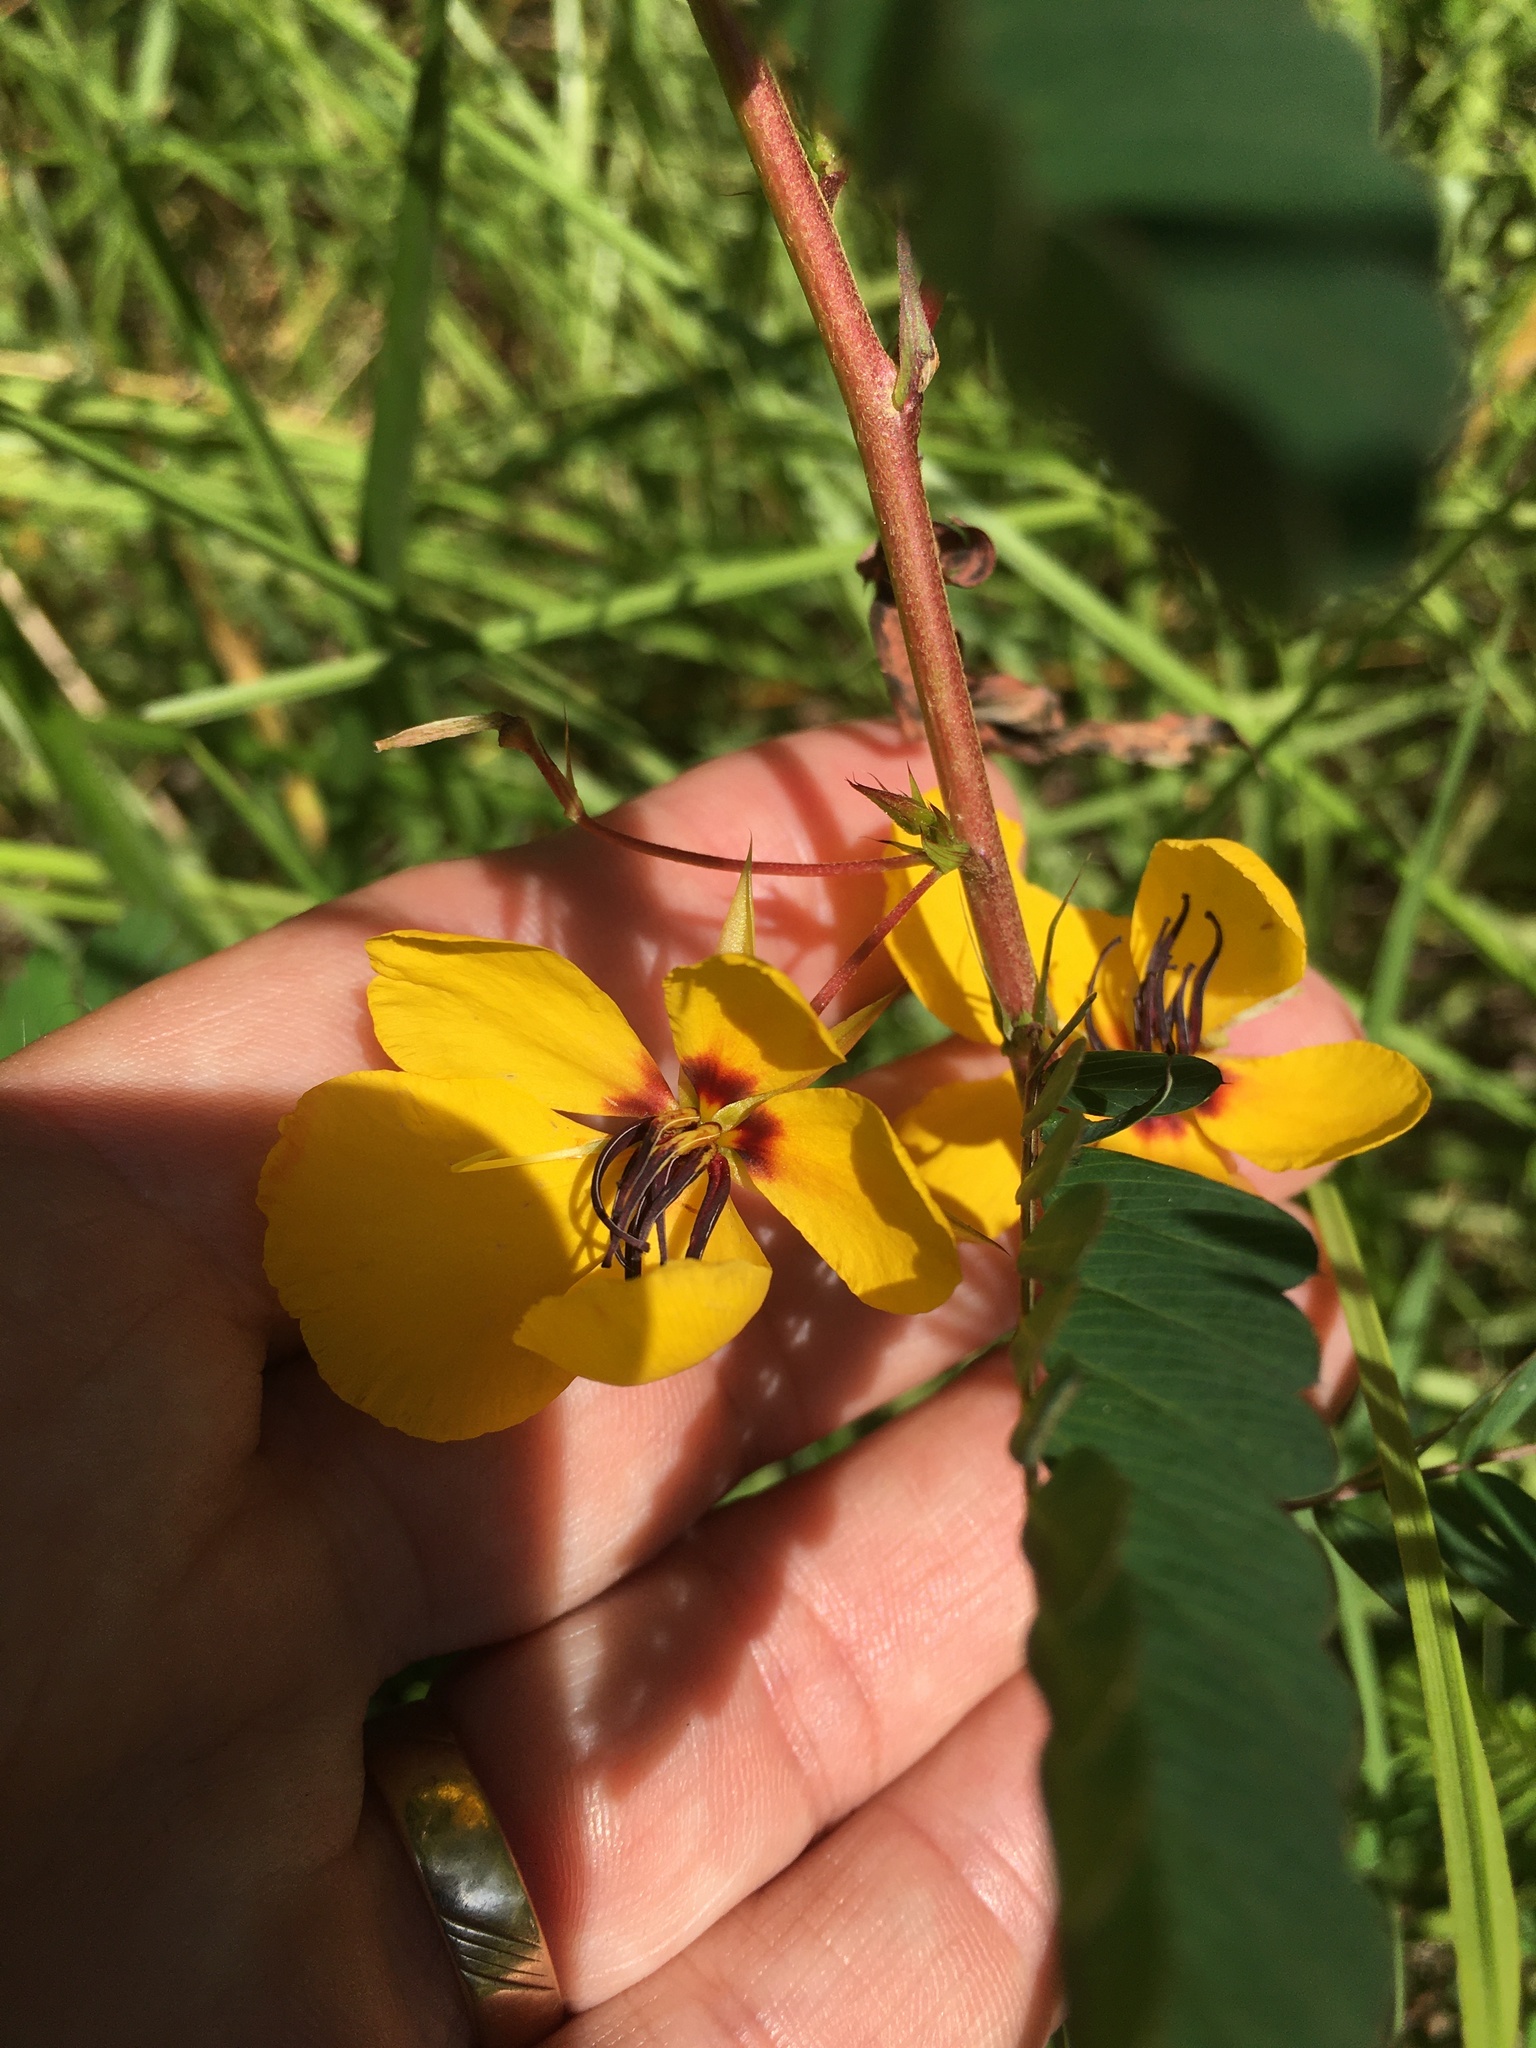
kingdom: Plantae
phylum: Tracheophyta
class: Magnoliopsida
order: Fabales
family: Fabaceae
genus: Chamaecrista
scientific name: Chamaecrista fasciculata
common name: Golden cassia
